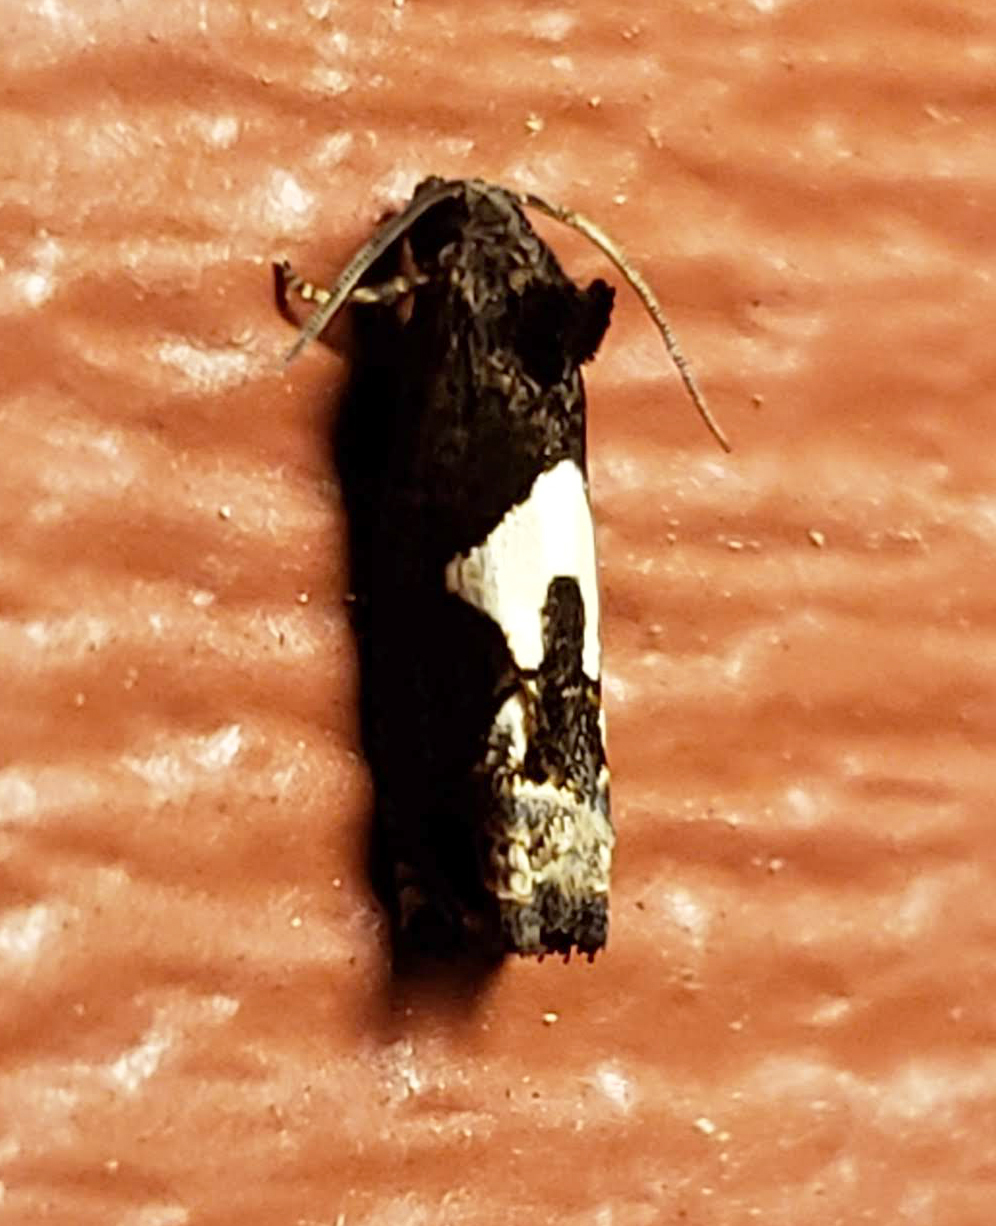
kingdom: Animalia
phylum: Arthropoda
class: Insecta
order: Lepidoptera
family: Tortricidae
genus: Epiblema
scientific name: Epiblema otiosana
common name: Bidens borer moth
